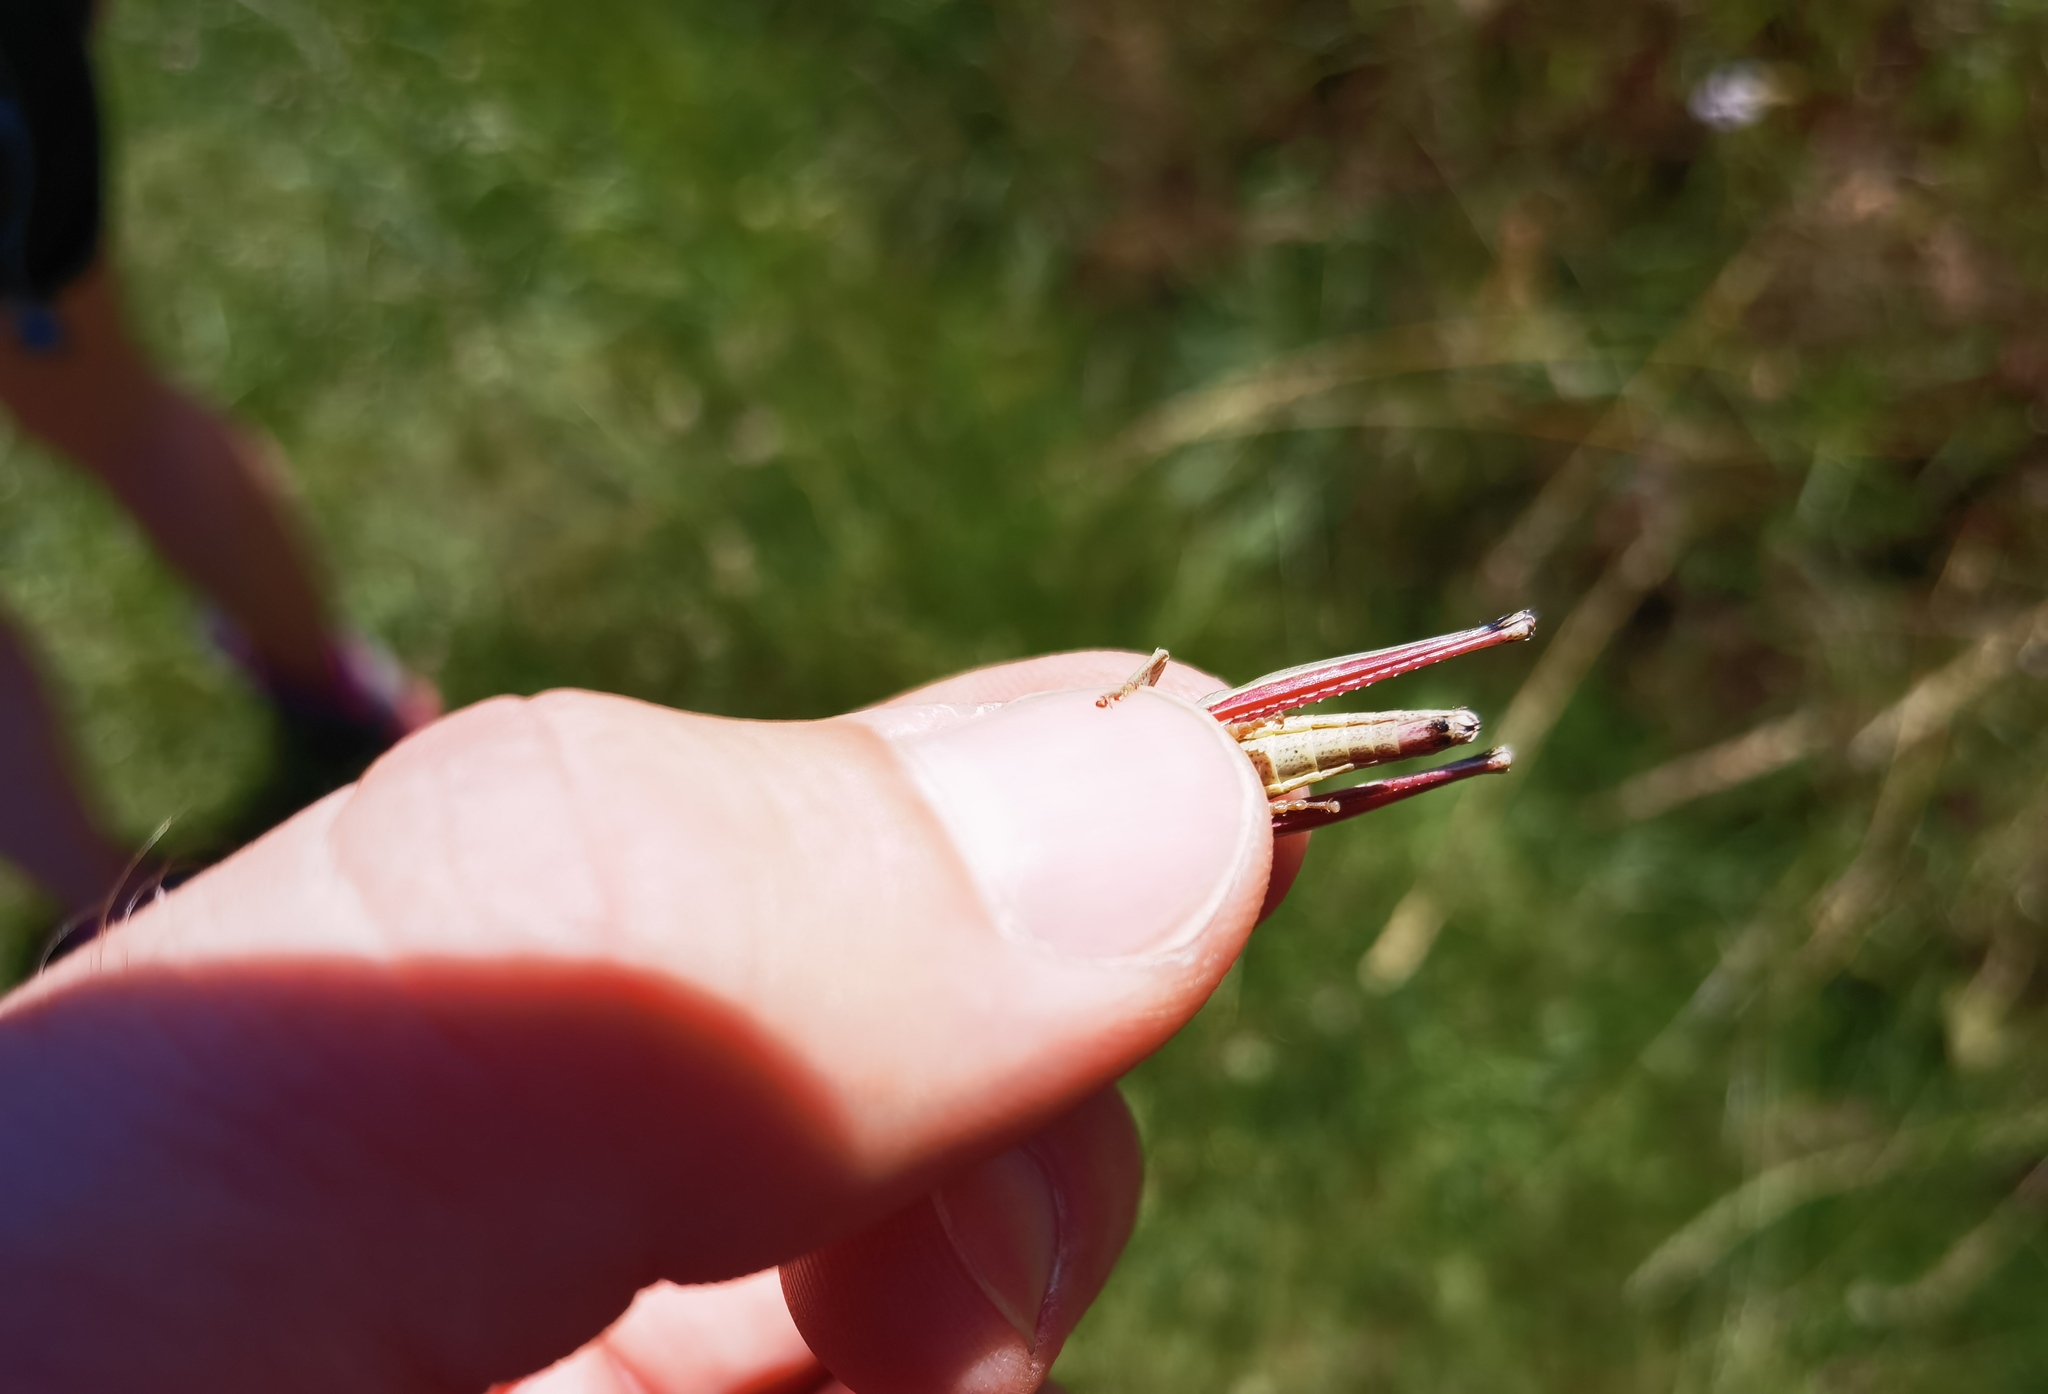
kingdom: Animalia
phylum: Arthropoda
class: Insecta
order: Orthoptera
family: Acrididae
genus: Chrysochraon
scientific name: Chrysochraon dispar
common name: Large gold grasshopper
